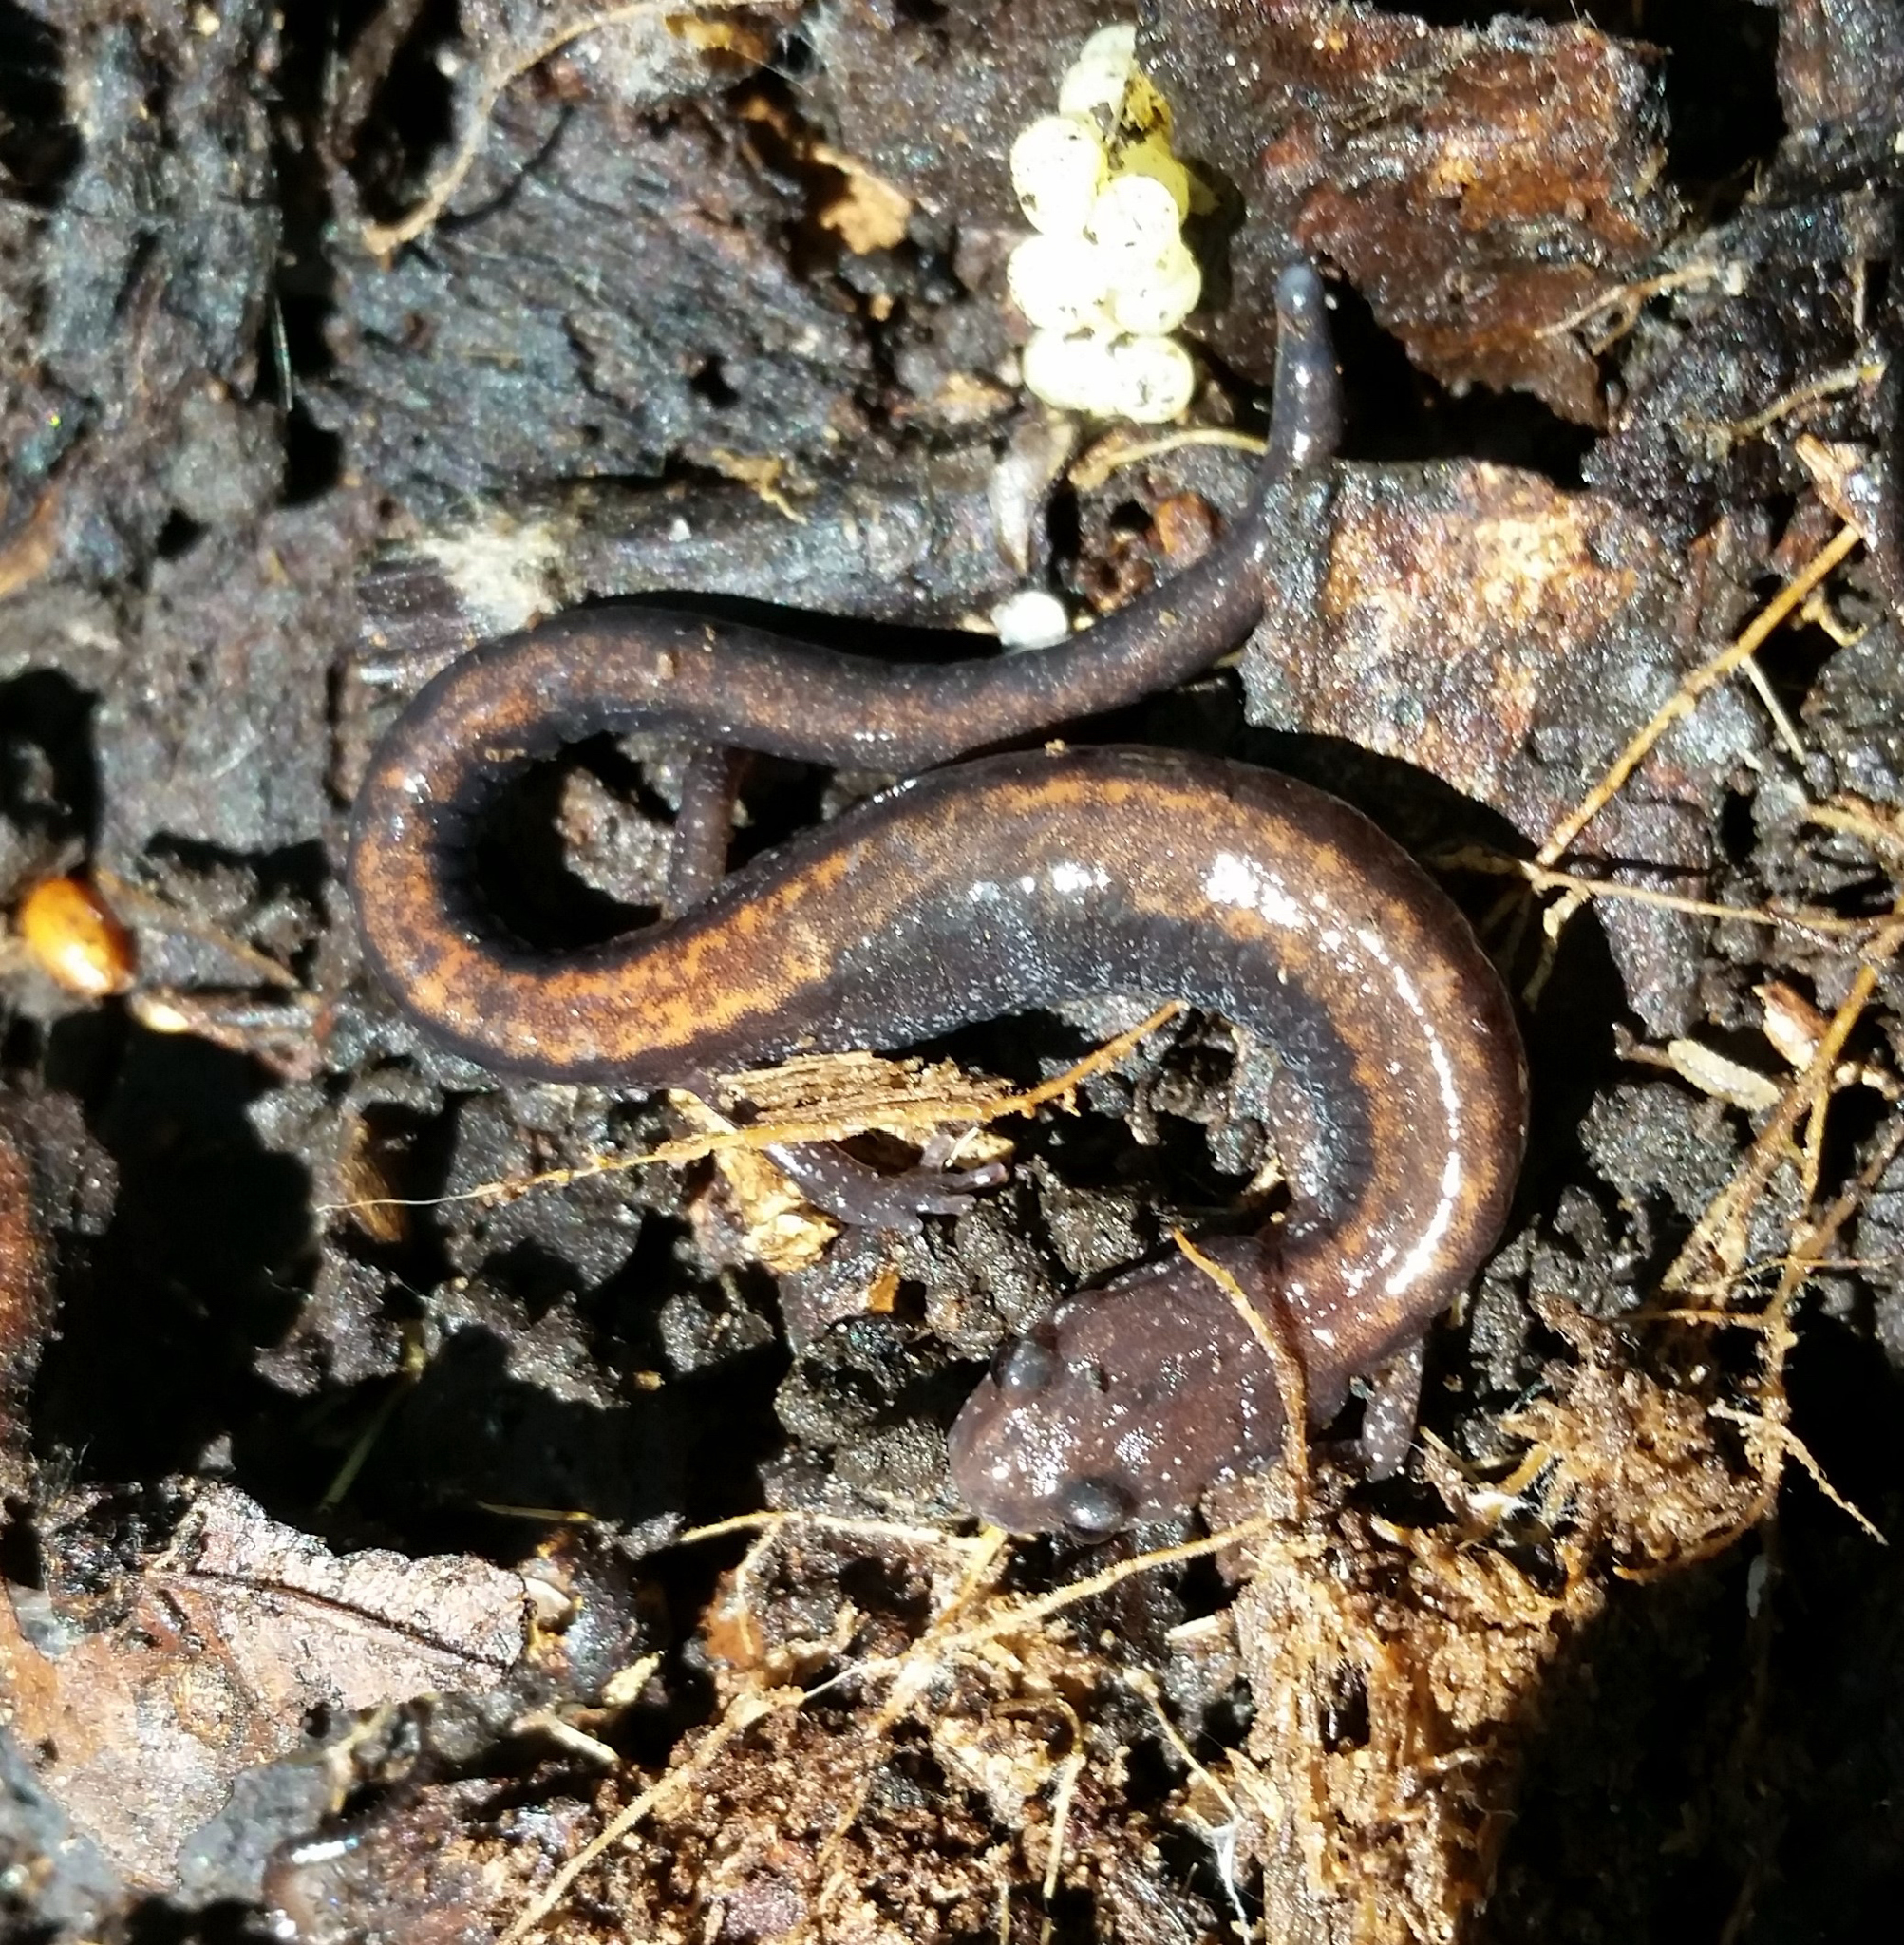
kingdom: Animalia
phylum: Chordata
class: Amphibia
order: Caudata
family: Plethodontidae
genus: Plethodon
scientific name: Plethodon cinereus
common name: Redback salamander
